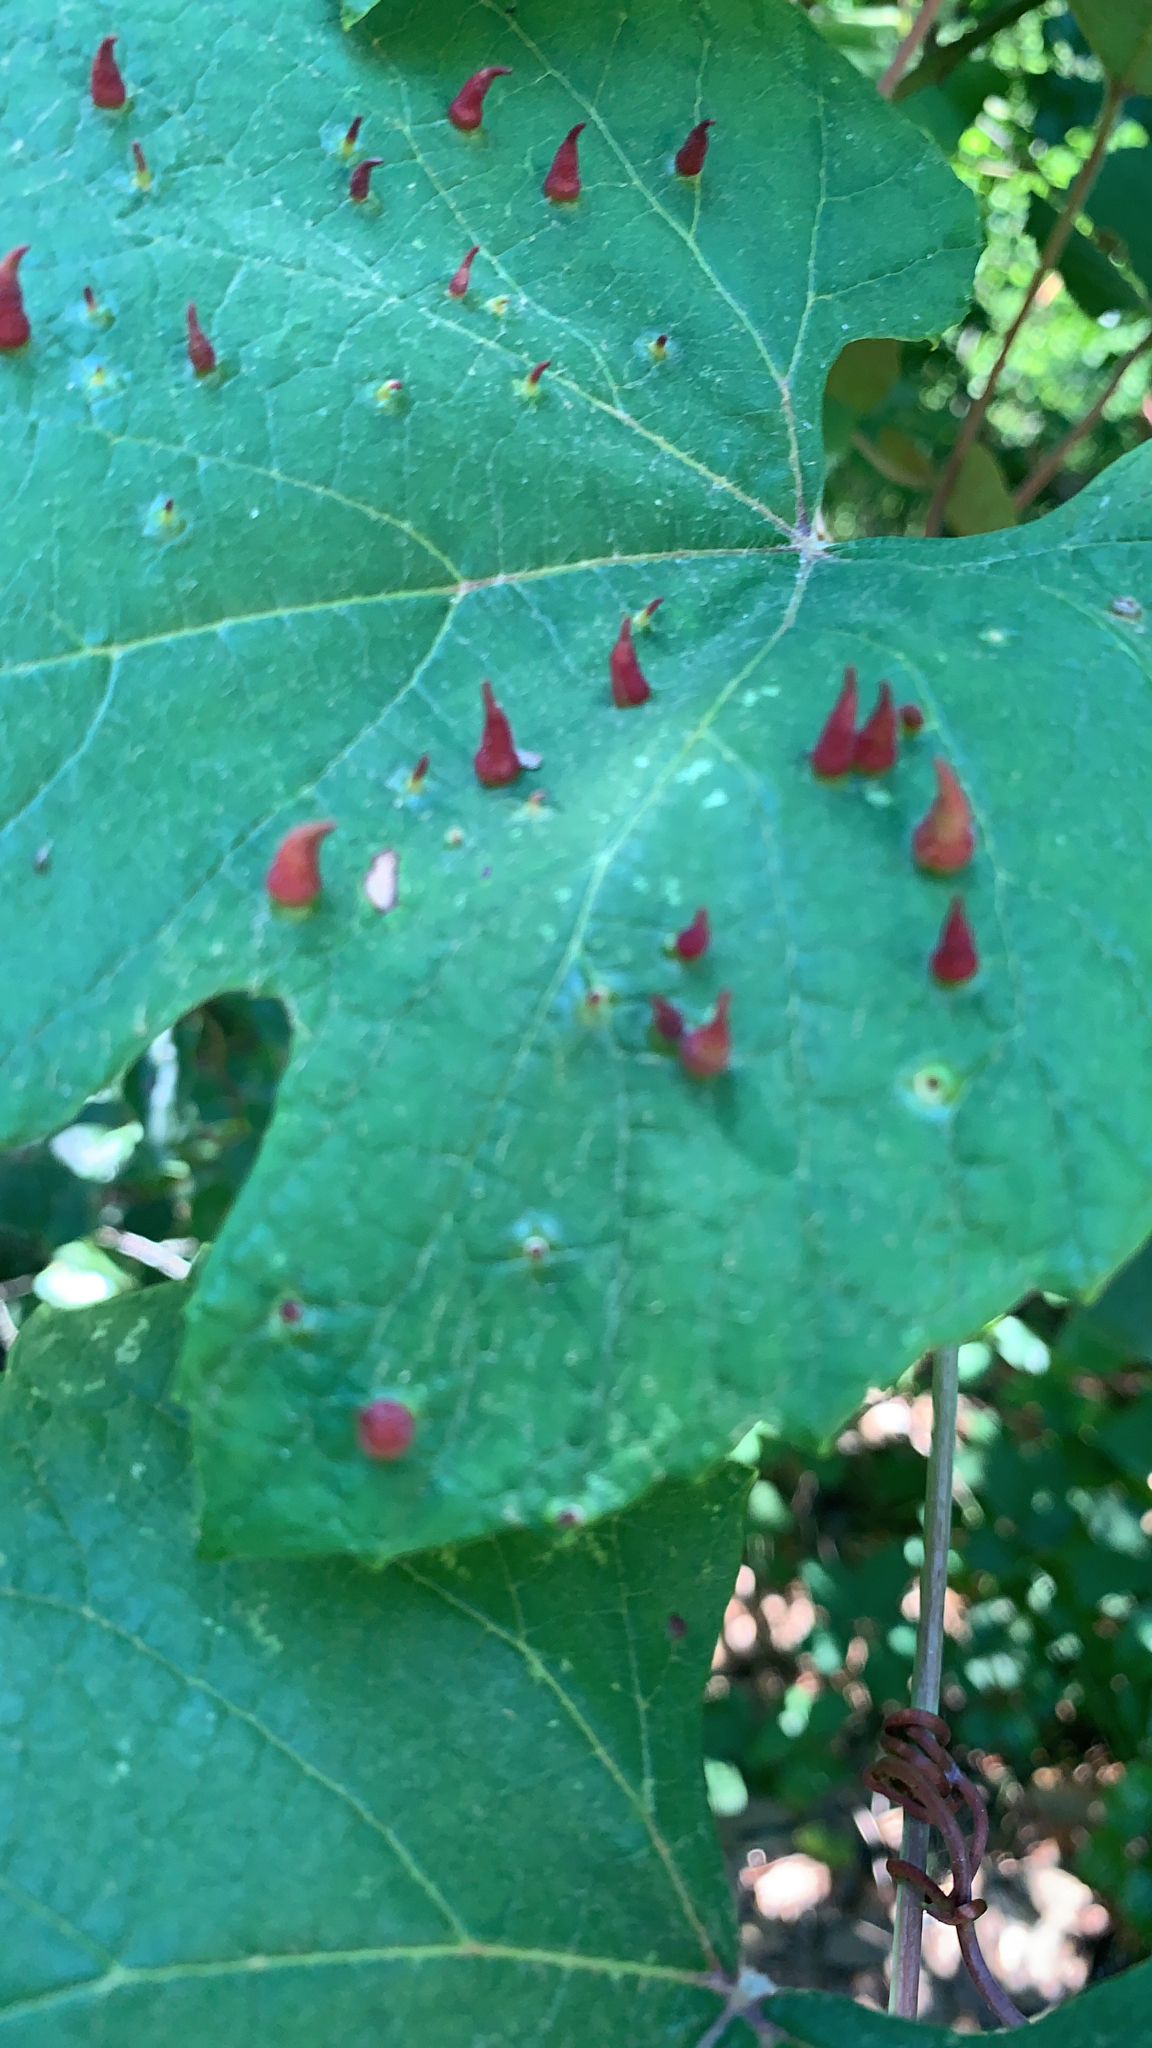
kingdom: Animalia
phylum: Arthropoda
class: Insecta
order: Diptera
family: Cecidomyiidae
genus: Ampelomyia
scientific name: Ampelomyia viticola
